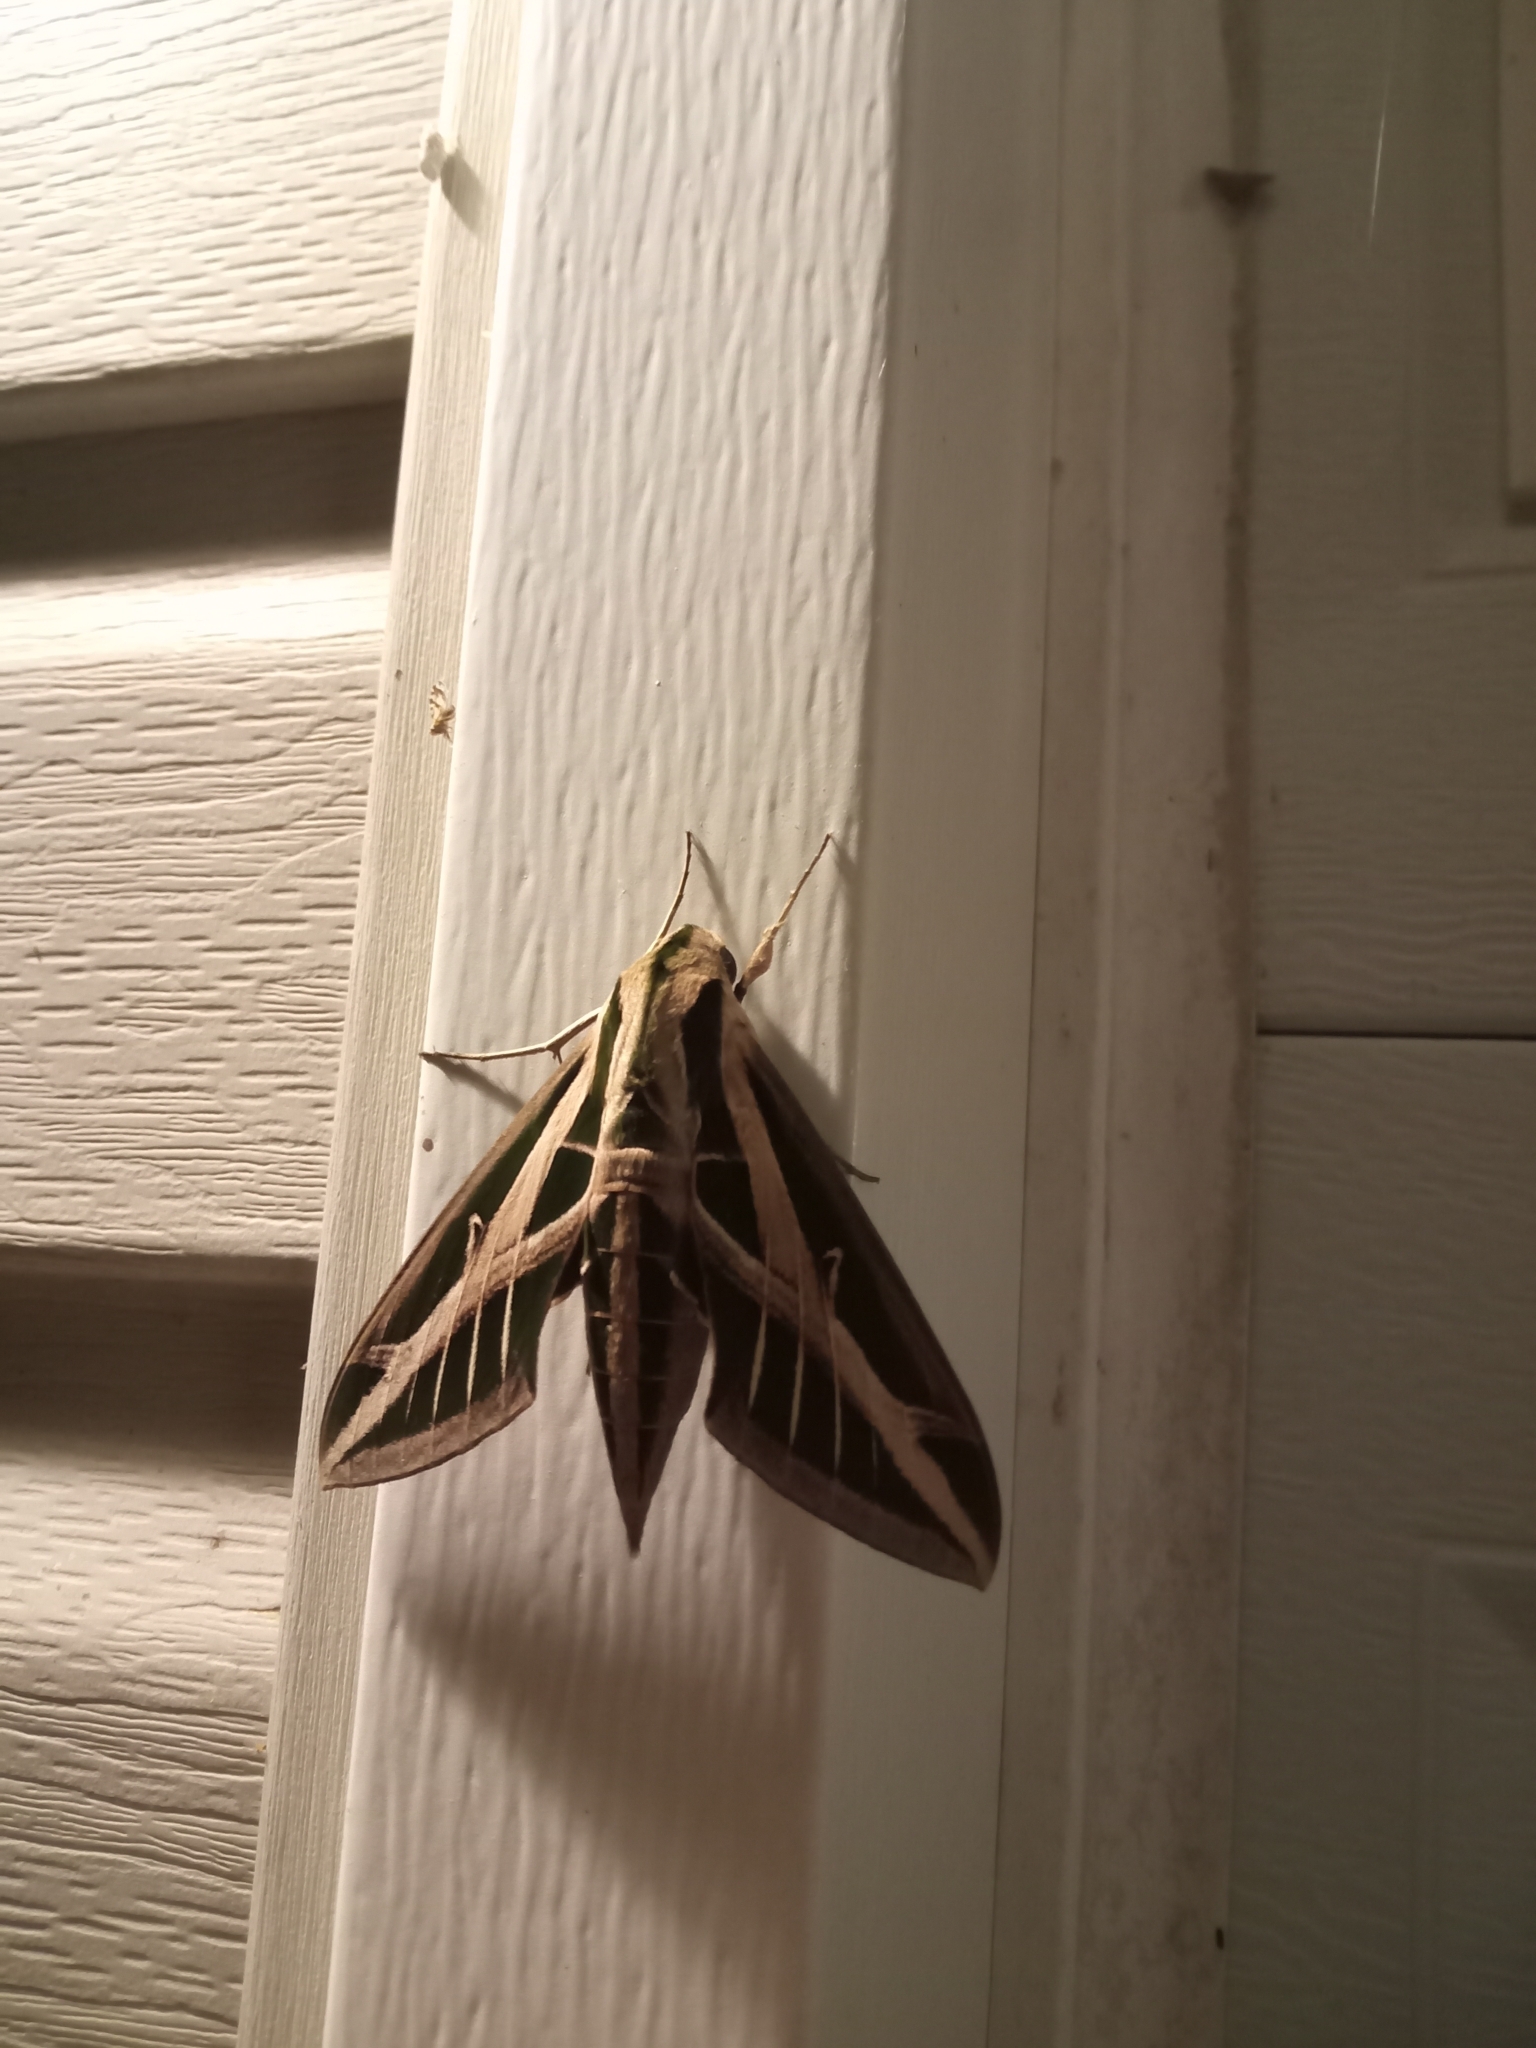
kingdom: Animalia
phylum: Arthropoda
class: Insecta
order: Lepidoptera
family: Sphingidae
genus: Eumorpha
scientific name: Eumorpha fasciatus
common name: Banded sphinx
